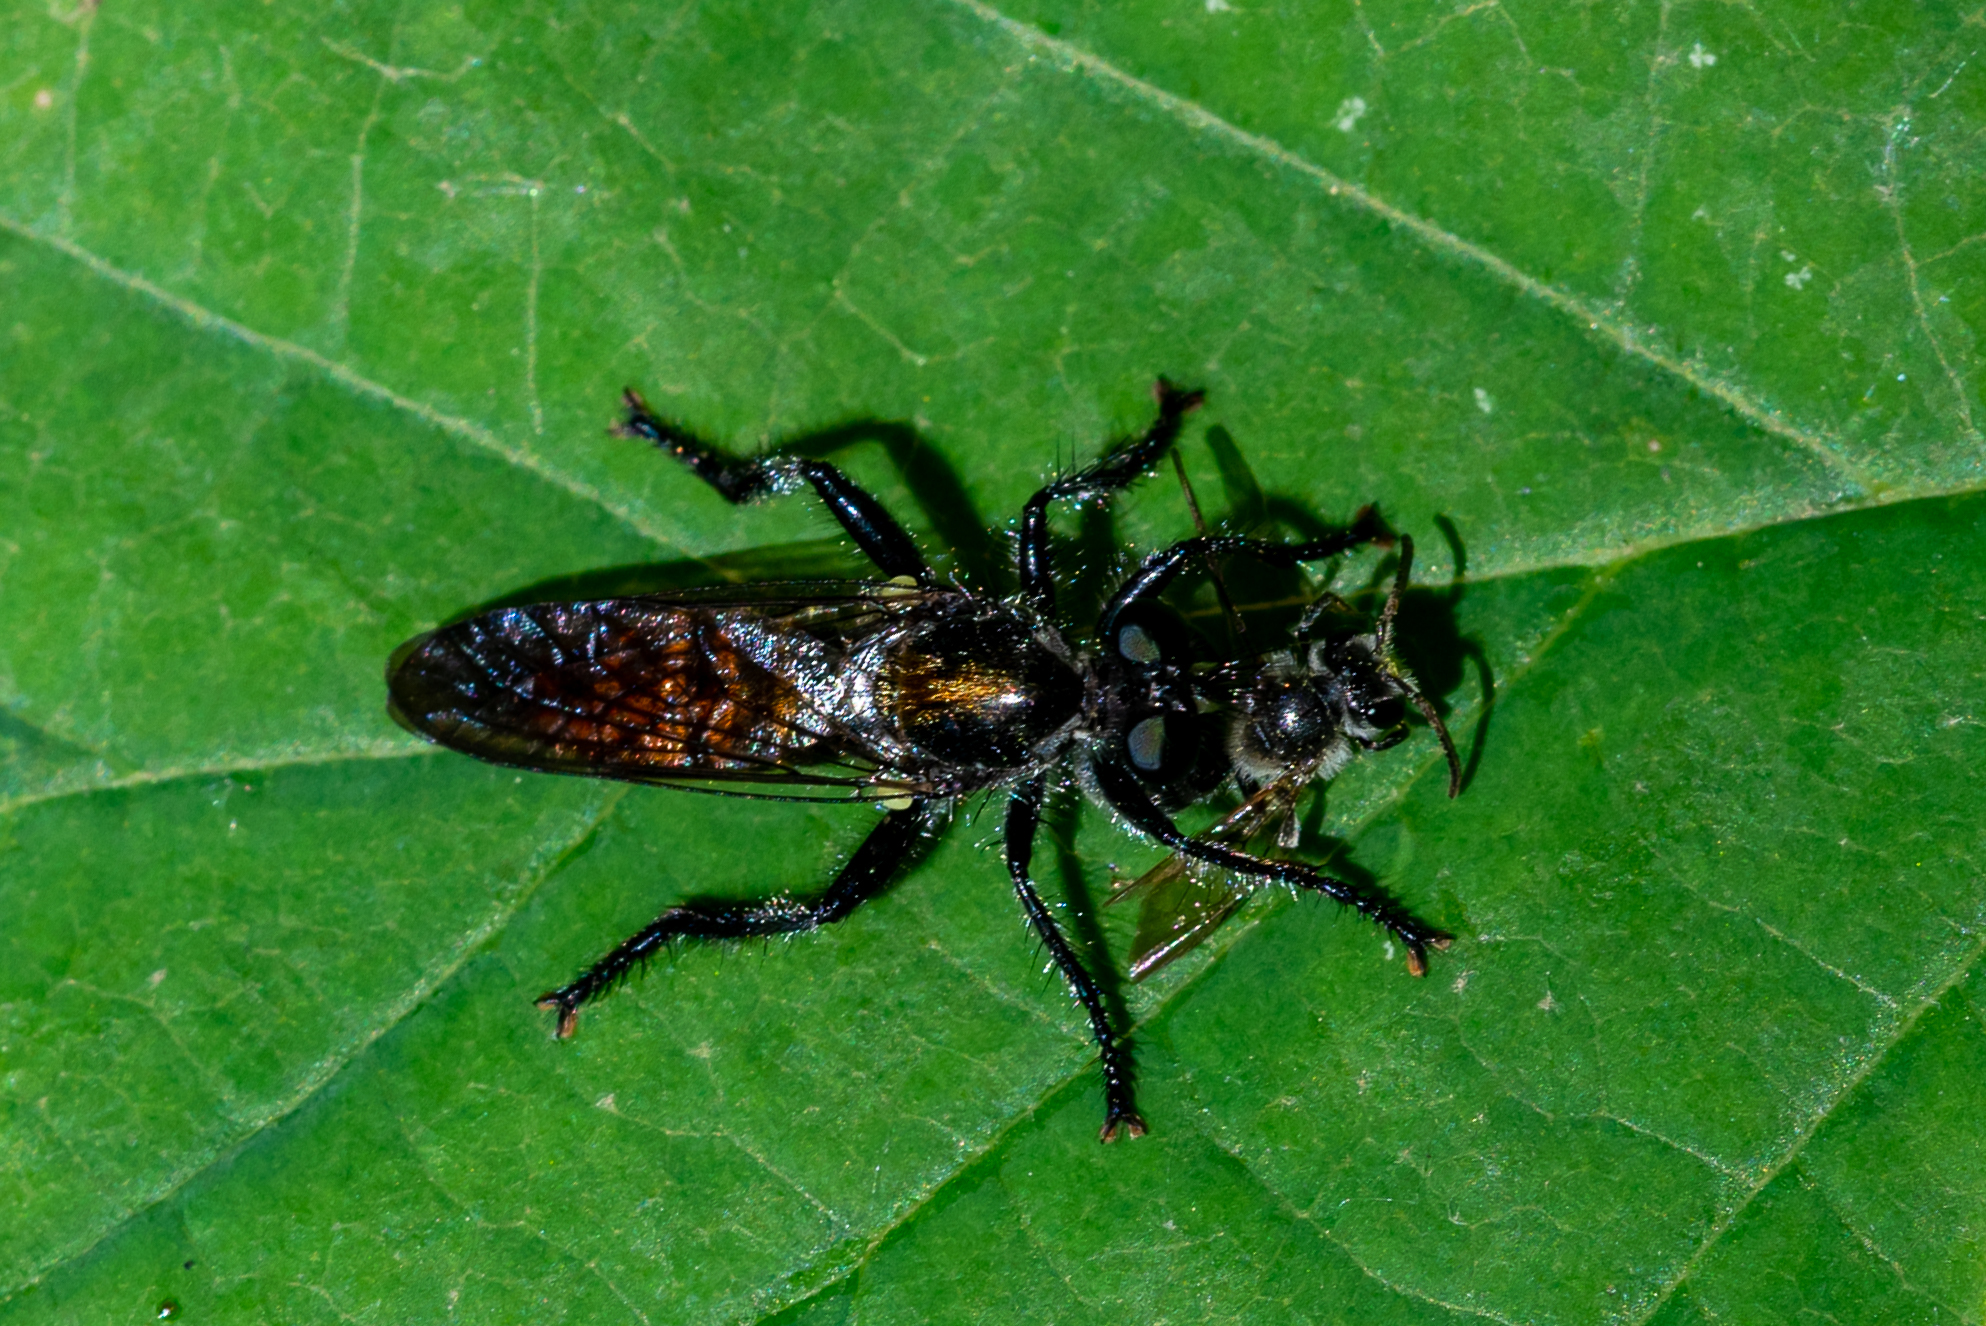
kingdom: Animalia
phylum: Arthropoda
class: Insecta
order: Diptera
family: Asilidae
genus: Laphria
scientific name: Laphria
